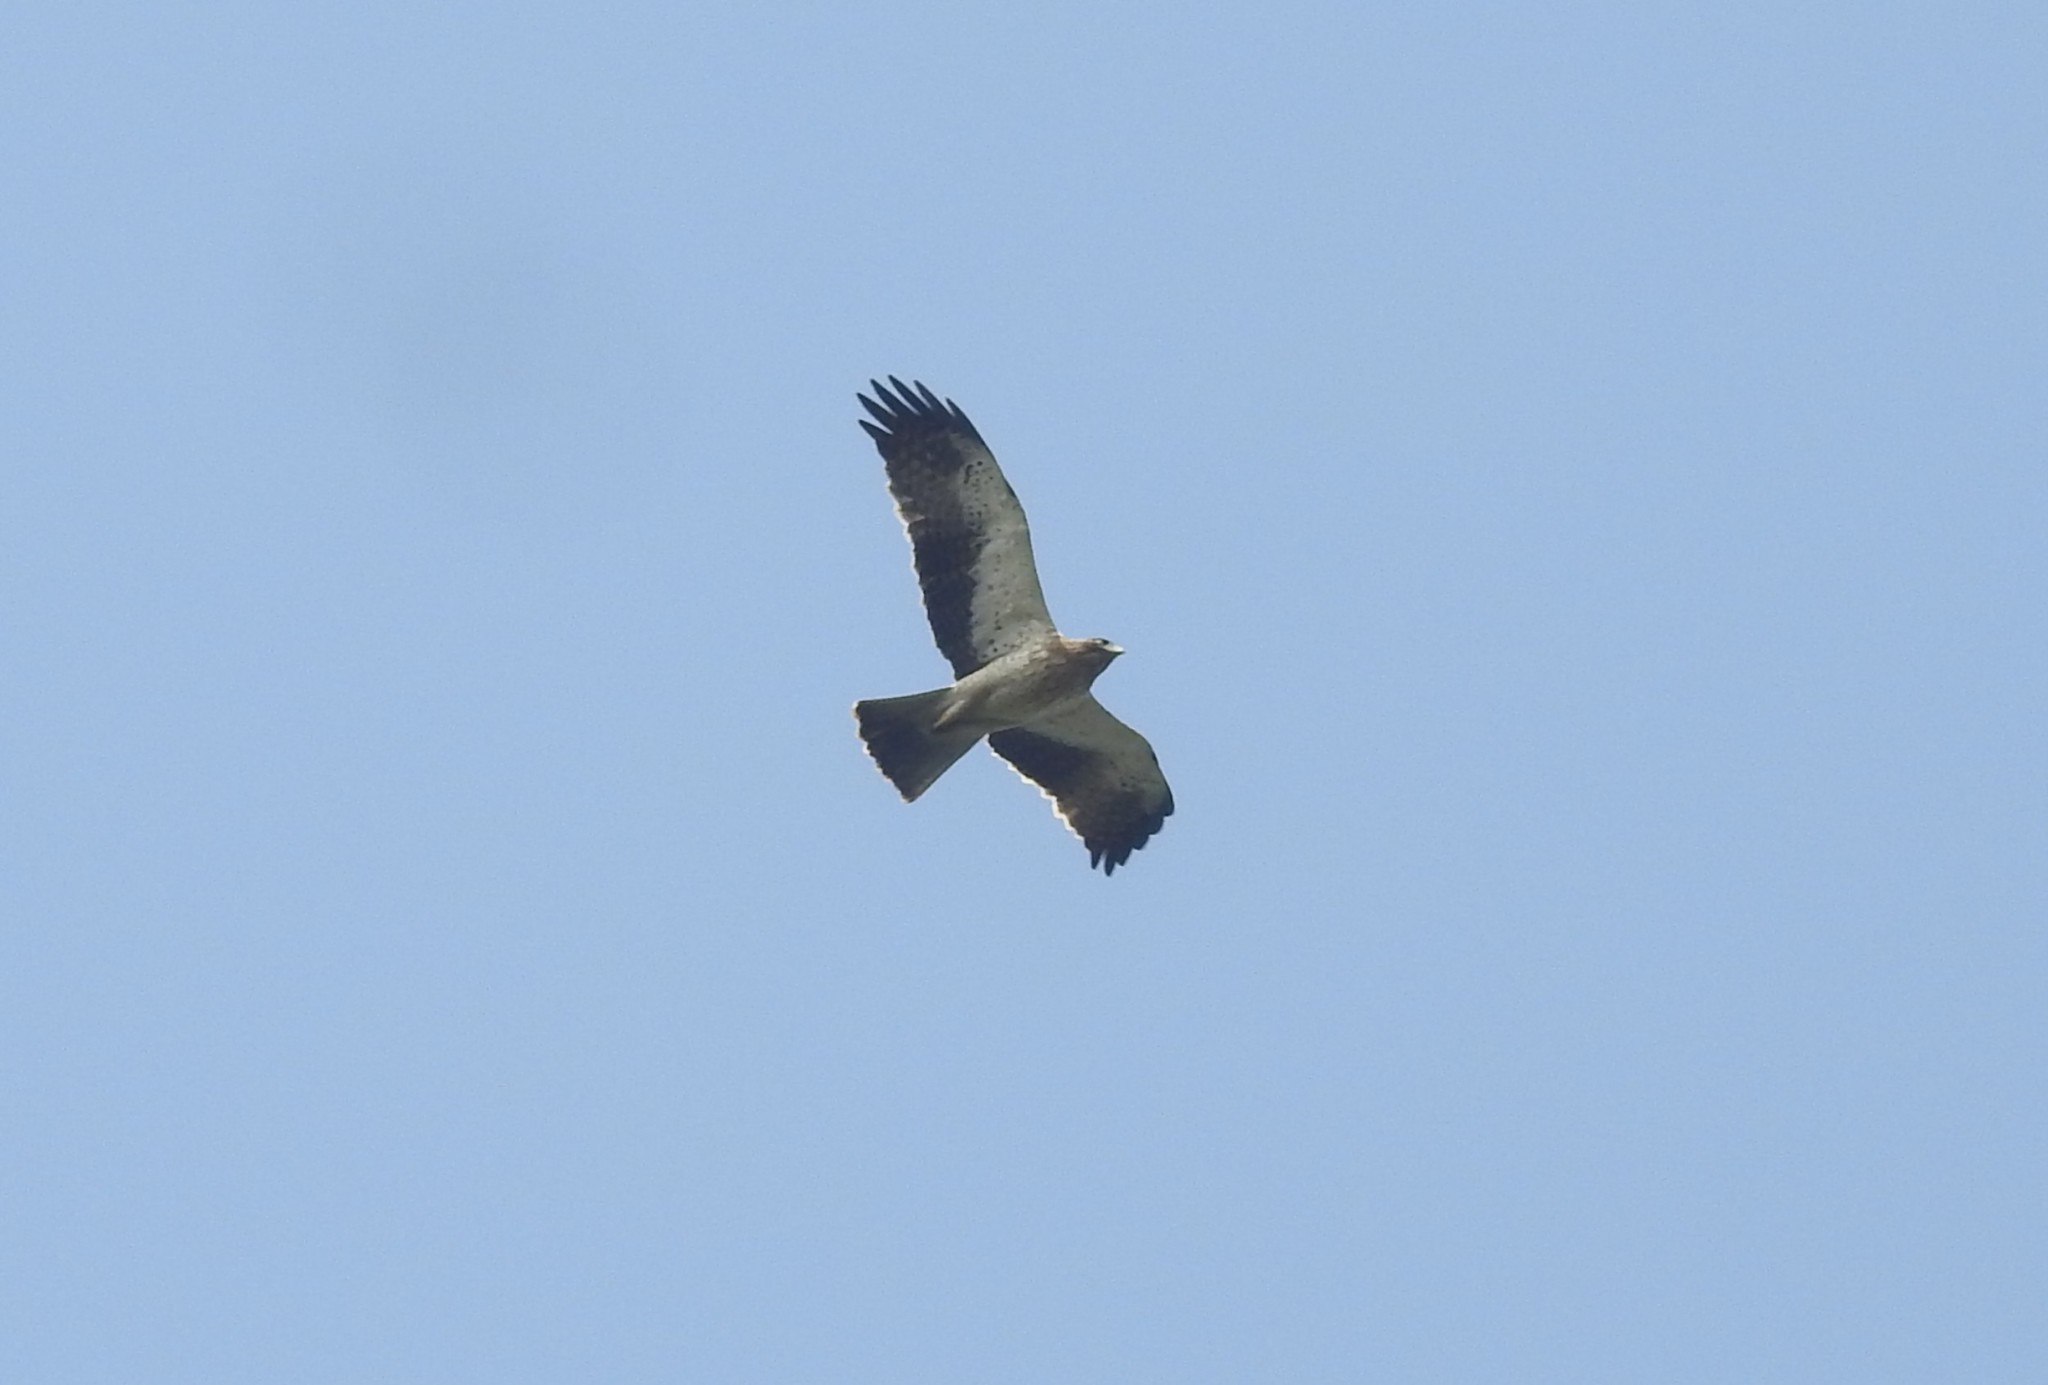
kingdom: Animalia
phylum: Chordata
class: Aves
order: Accipitriformes
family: Accipitridae
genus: Hieraaetus
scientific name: Hieraaetus pennatus
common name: Booted eagle
